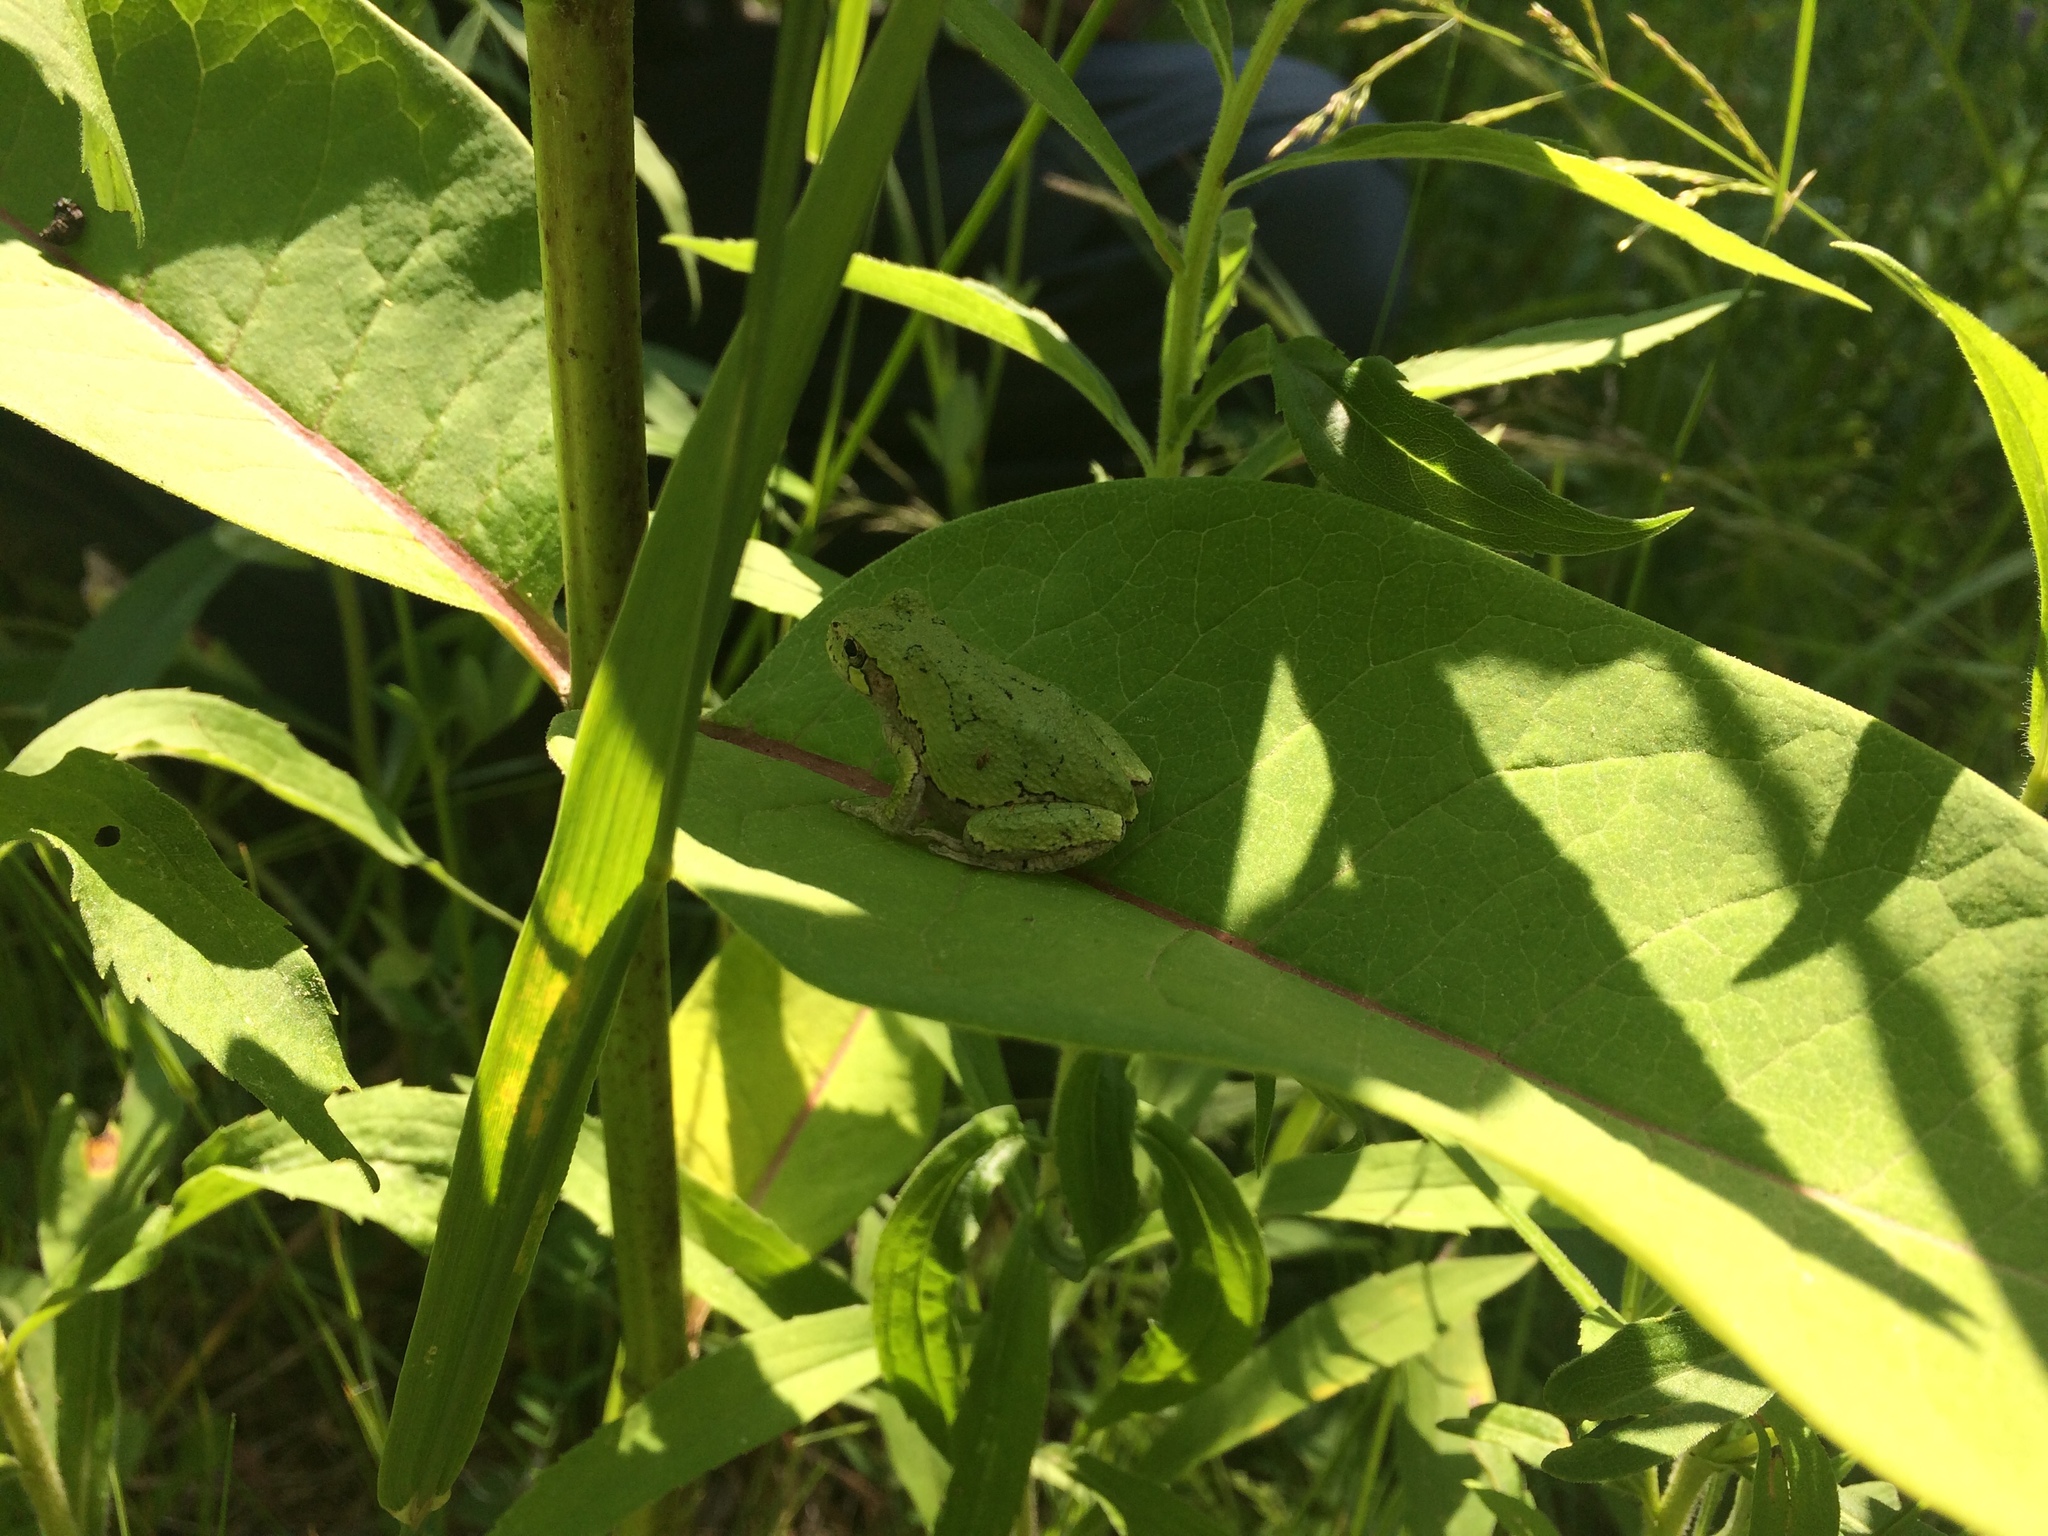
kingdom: Animalia
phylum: Chordata
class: Amphibia
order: Anura
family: Hylidae
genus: Dryophytes
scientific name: Dryophytes versicolor
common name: Gray treefrog
